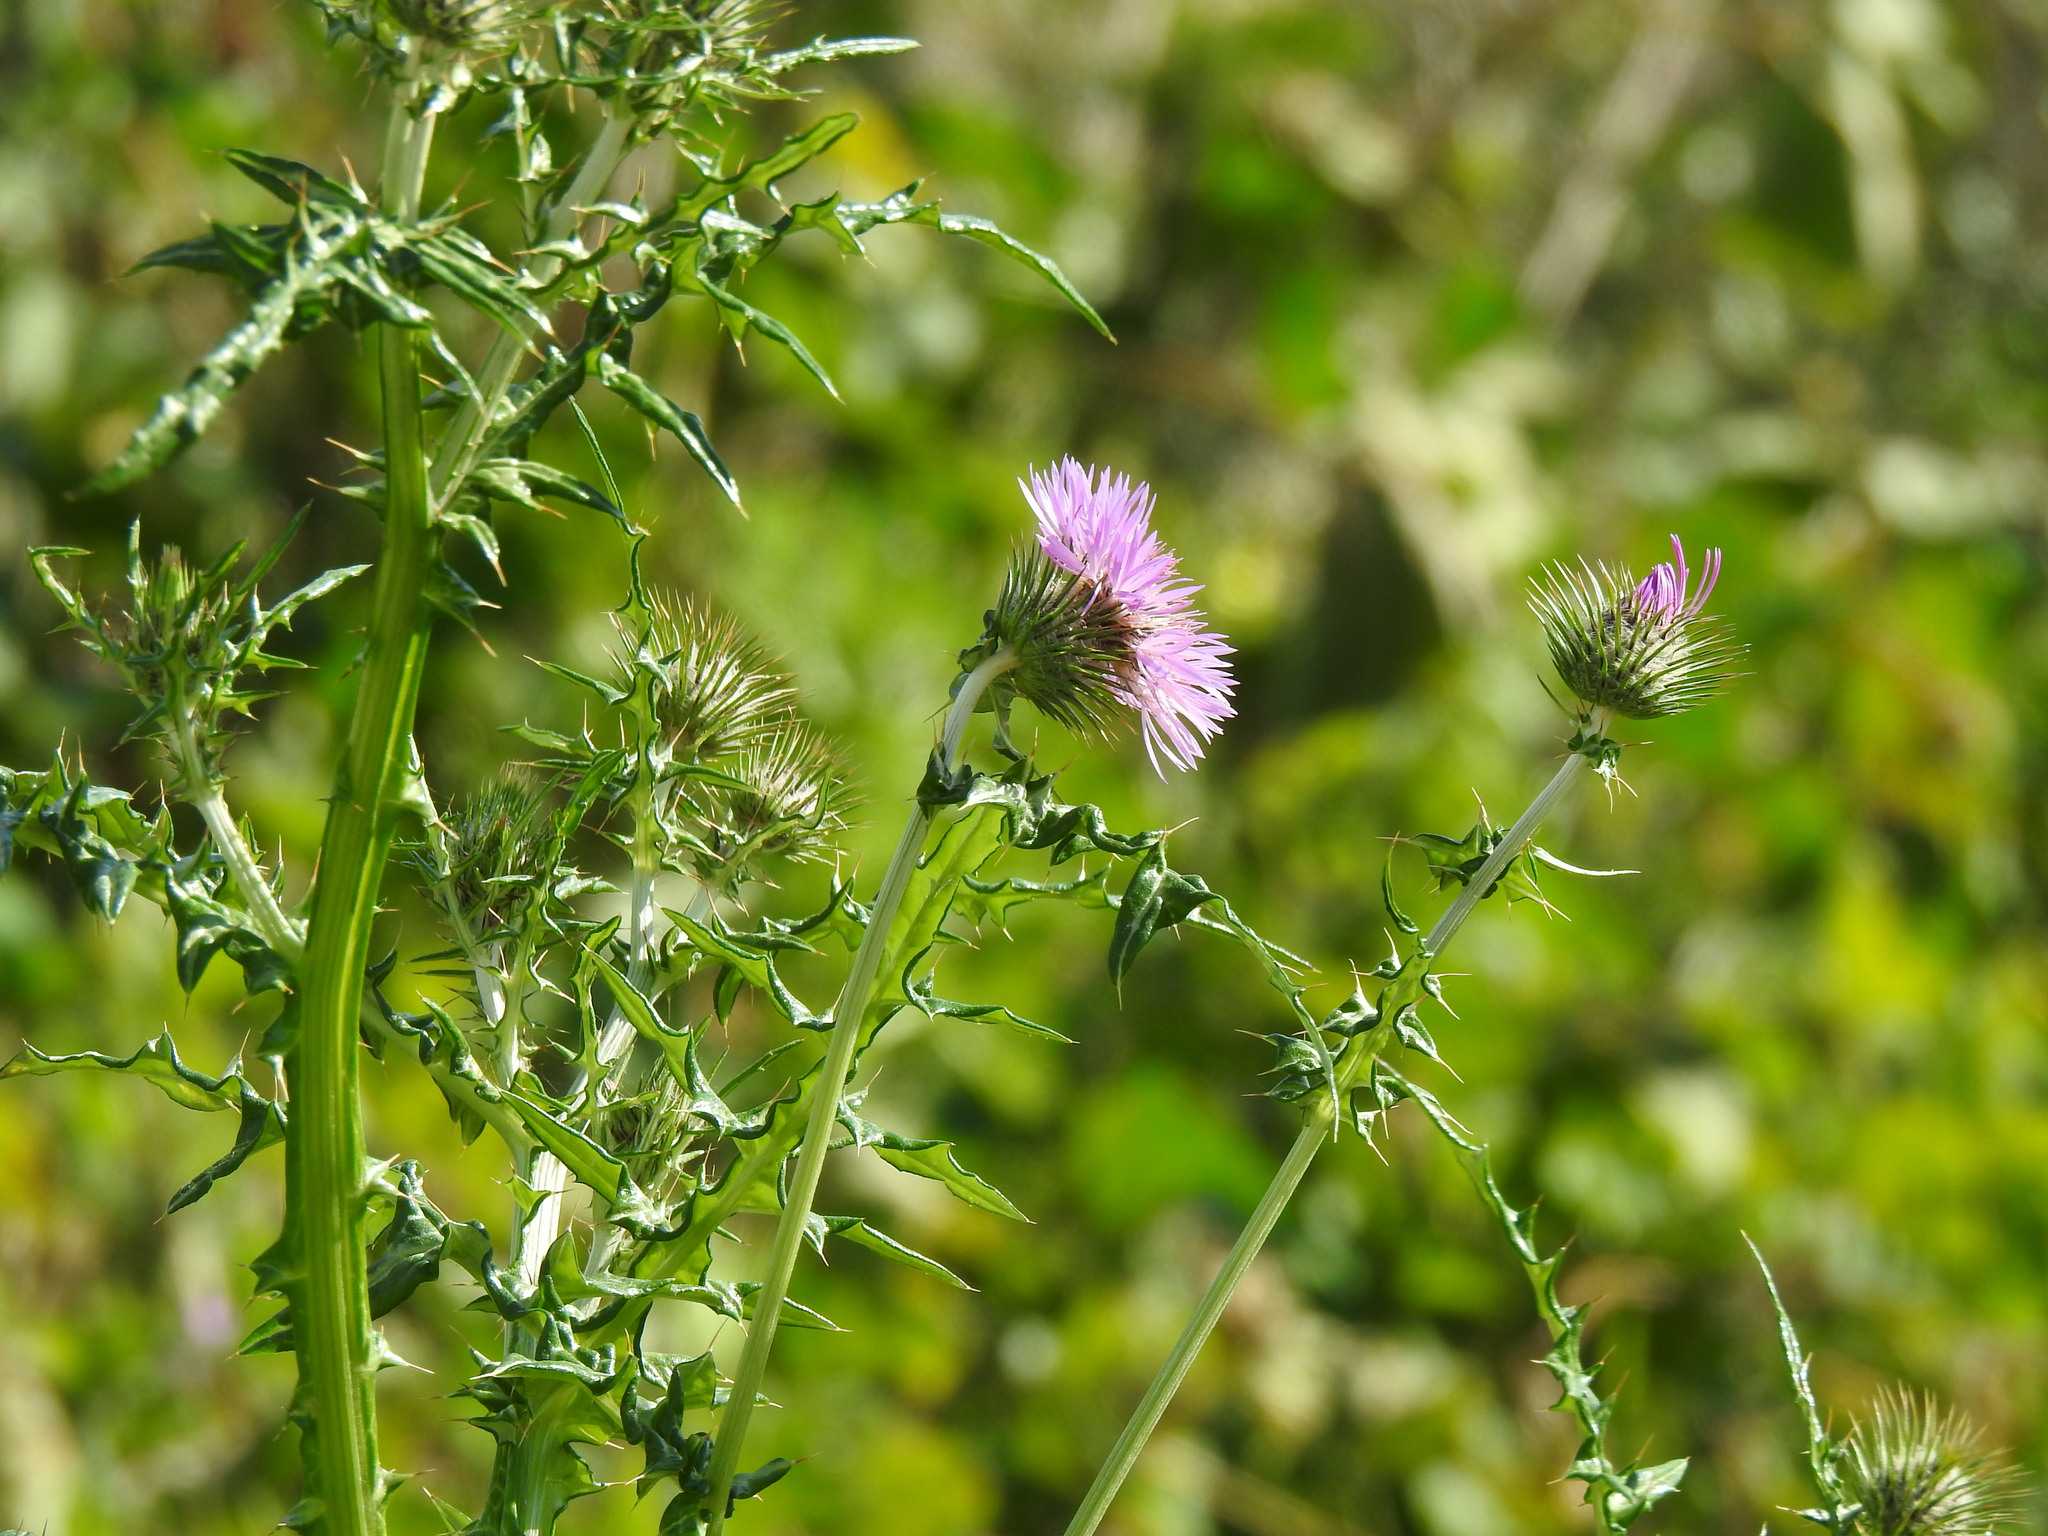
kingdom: Plantae
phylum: Tracheophyta
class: Magnoliopsida
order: Asterales
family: Asteraceae
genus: Galactites
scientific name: Galactites tomentosa
